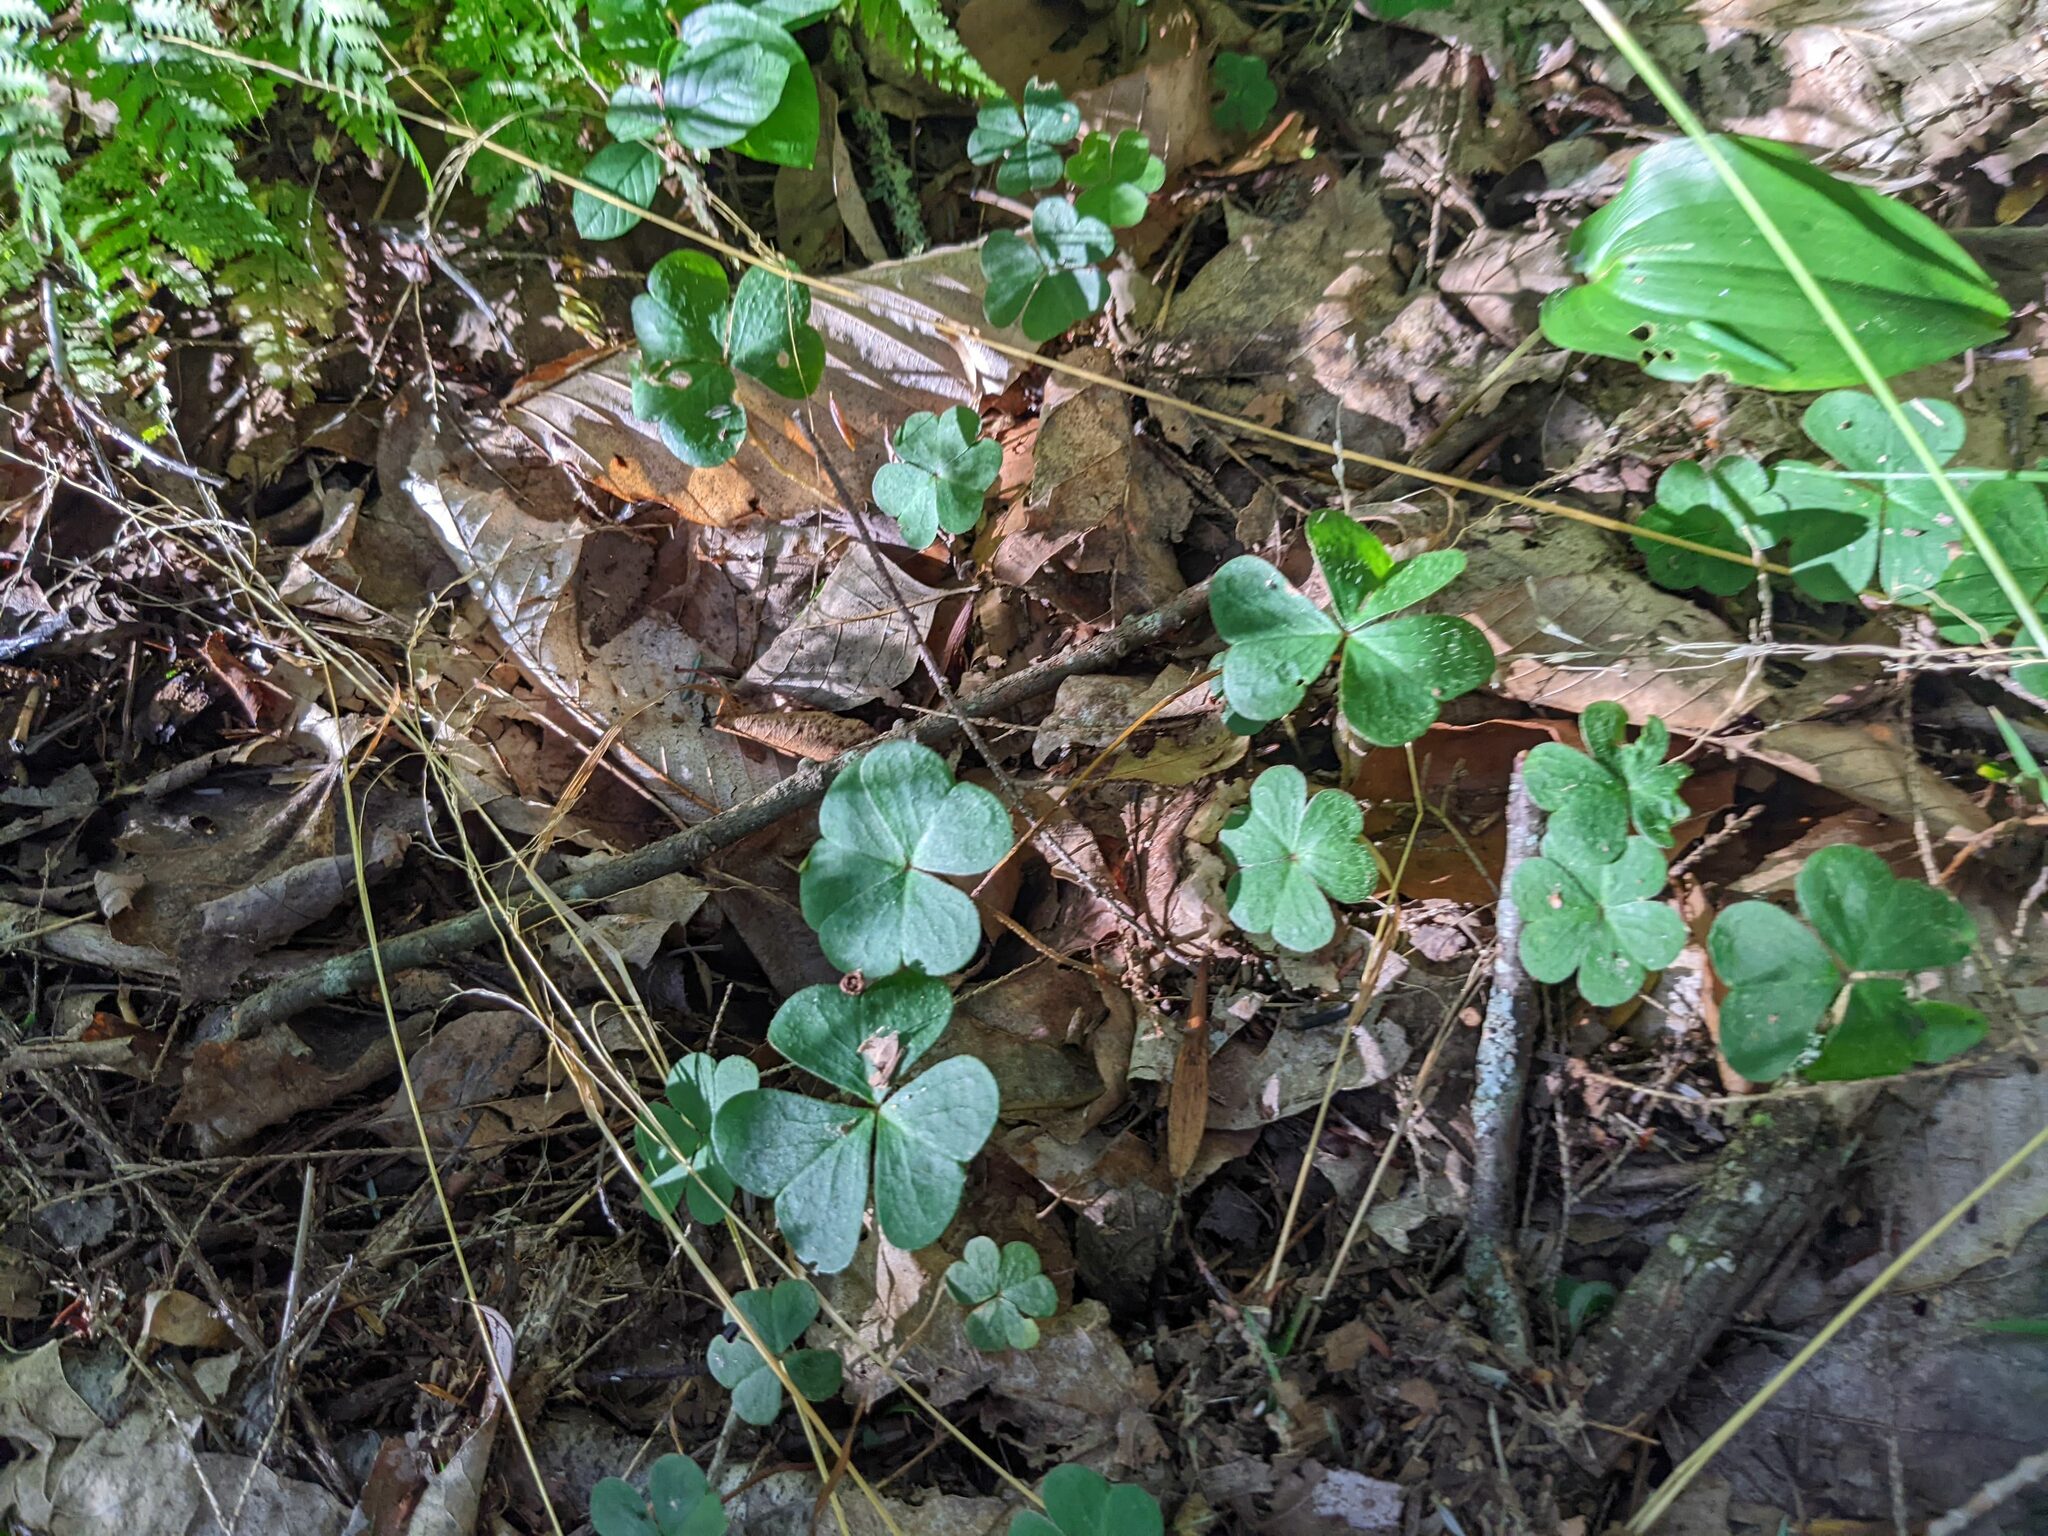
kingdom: Plantae
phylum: Tracheophyta
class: Magnoliopsida
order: Oxalidales
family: Oxalidaceae
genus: Oxalis
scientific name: Oxalis montana
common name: American wood-sorrel
